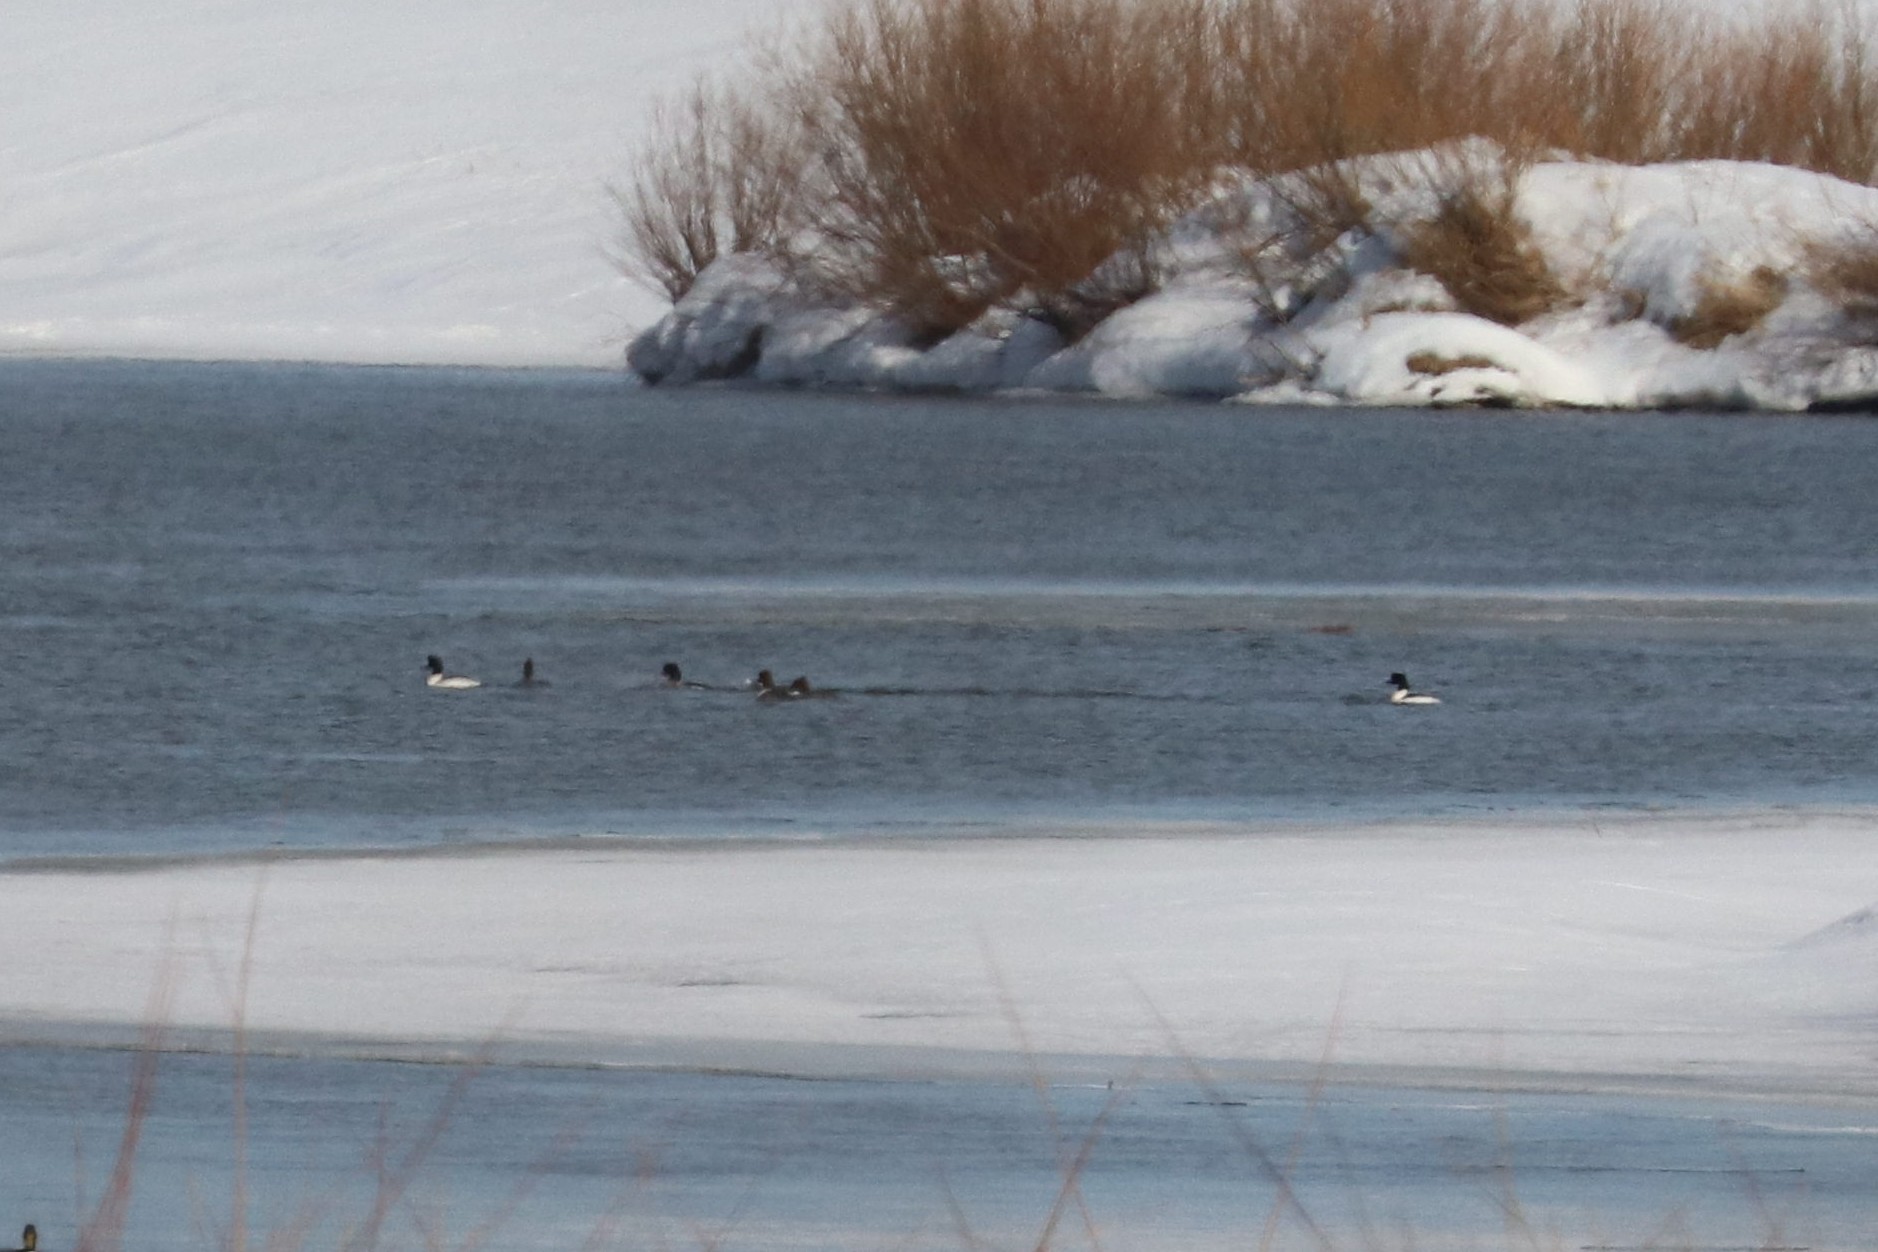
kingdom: Animalia
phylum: Chordata
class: Aves
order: Anseriformes
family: Anatidae
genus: Mergus
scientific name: Mergus merganser
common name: Common merganser
